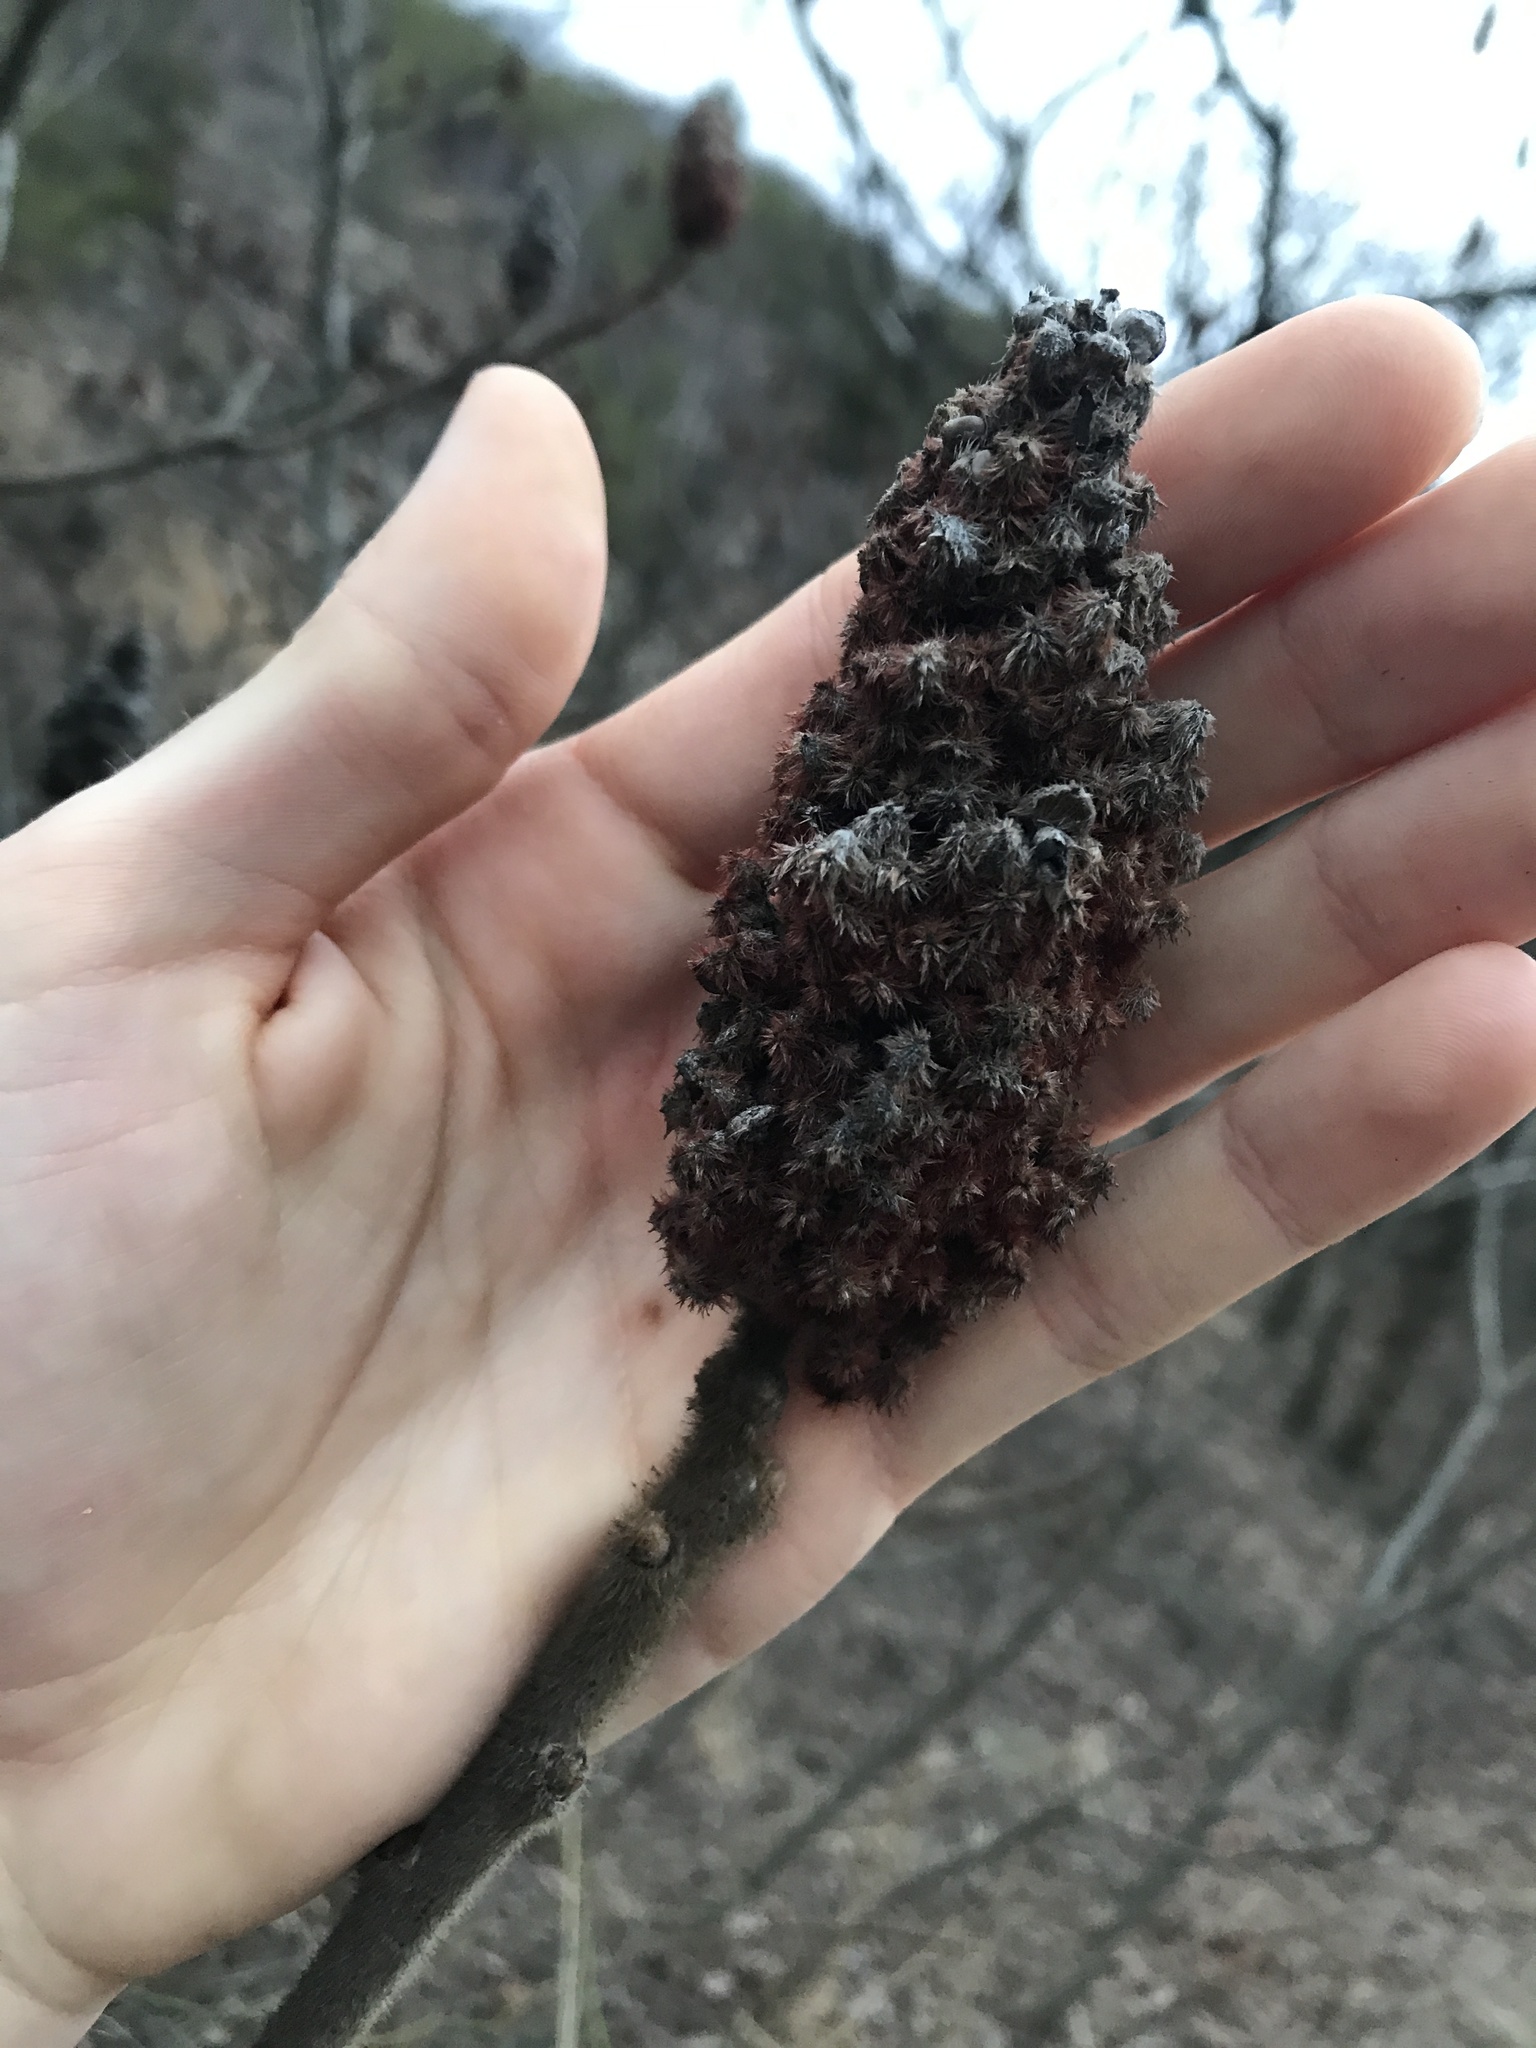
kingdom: Plantae
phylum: Tracheophyta
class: Magnoliopsida
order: Sapindales
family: Anacardiaceae
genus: Rhus
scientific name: Rhus typhina
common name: Staghorn sumac
